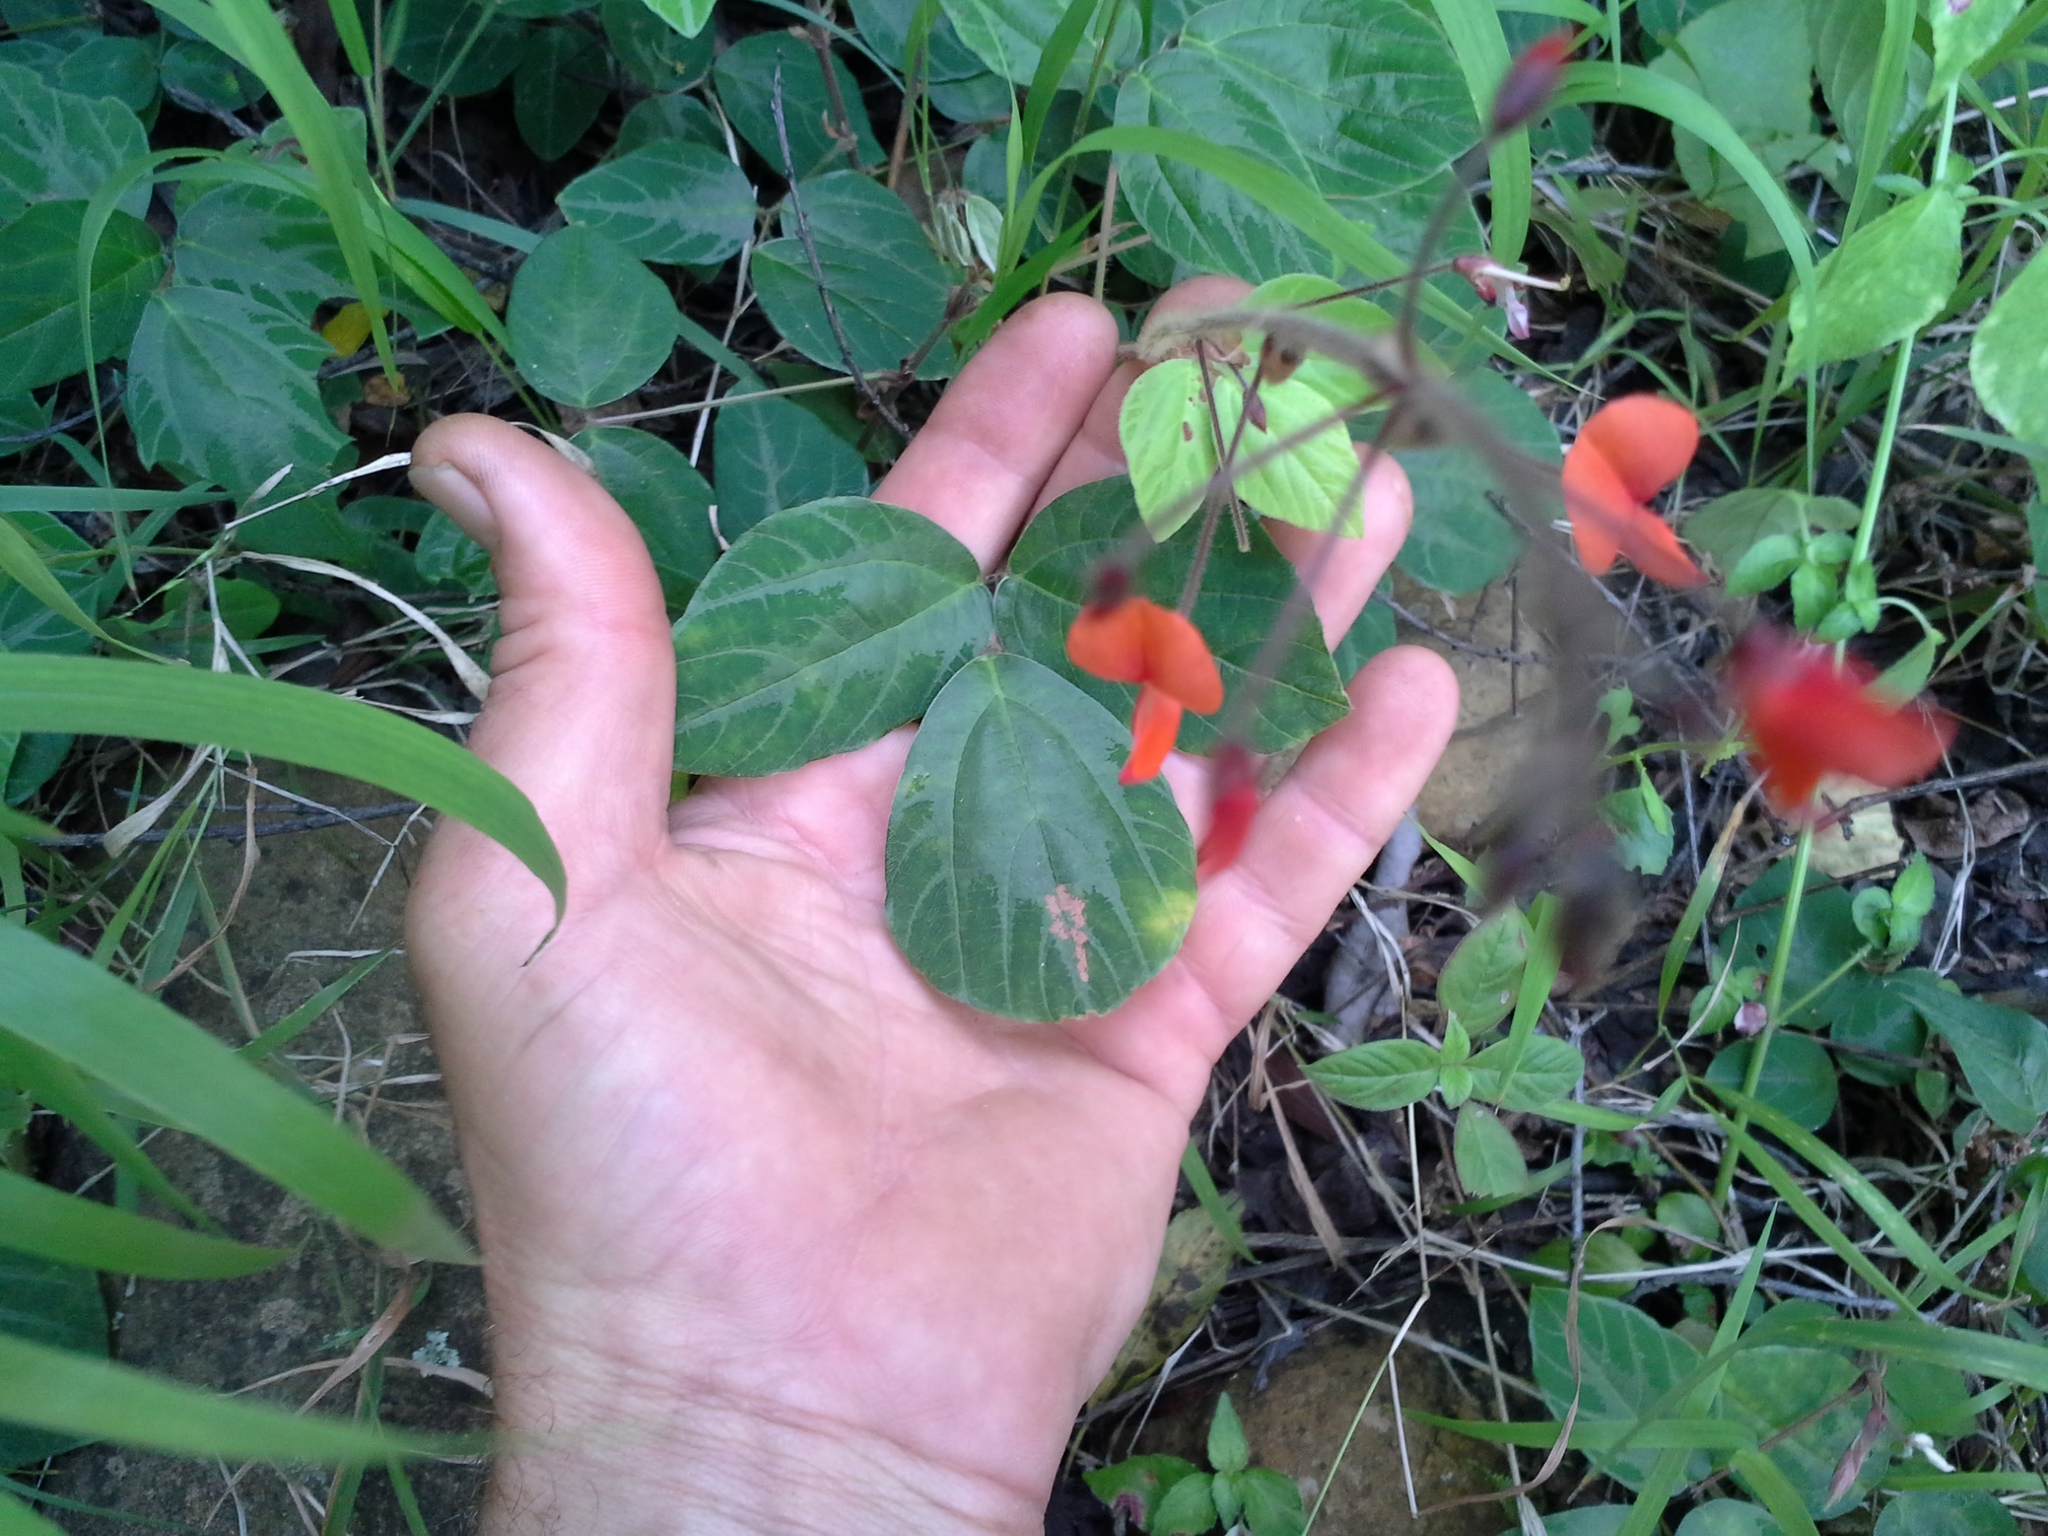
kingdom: Plantae
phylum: Tracheophyta
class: Magnoliopsida
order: Fabales
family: Fabaceae
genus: Hylodesmum
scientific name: Hylodesmum repandum
